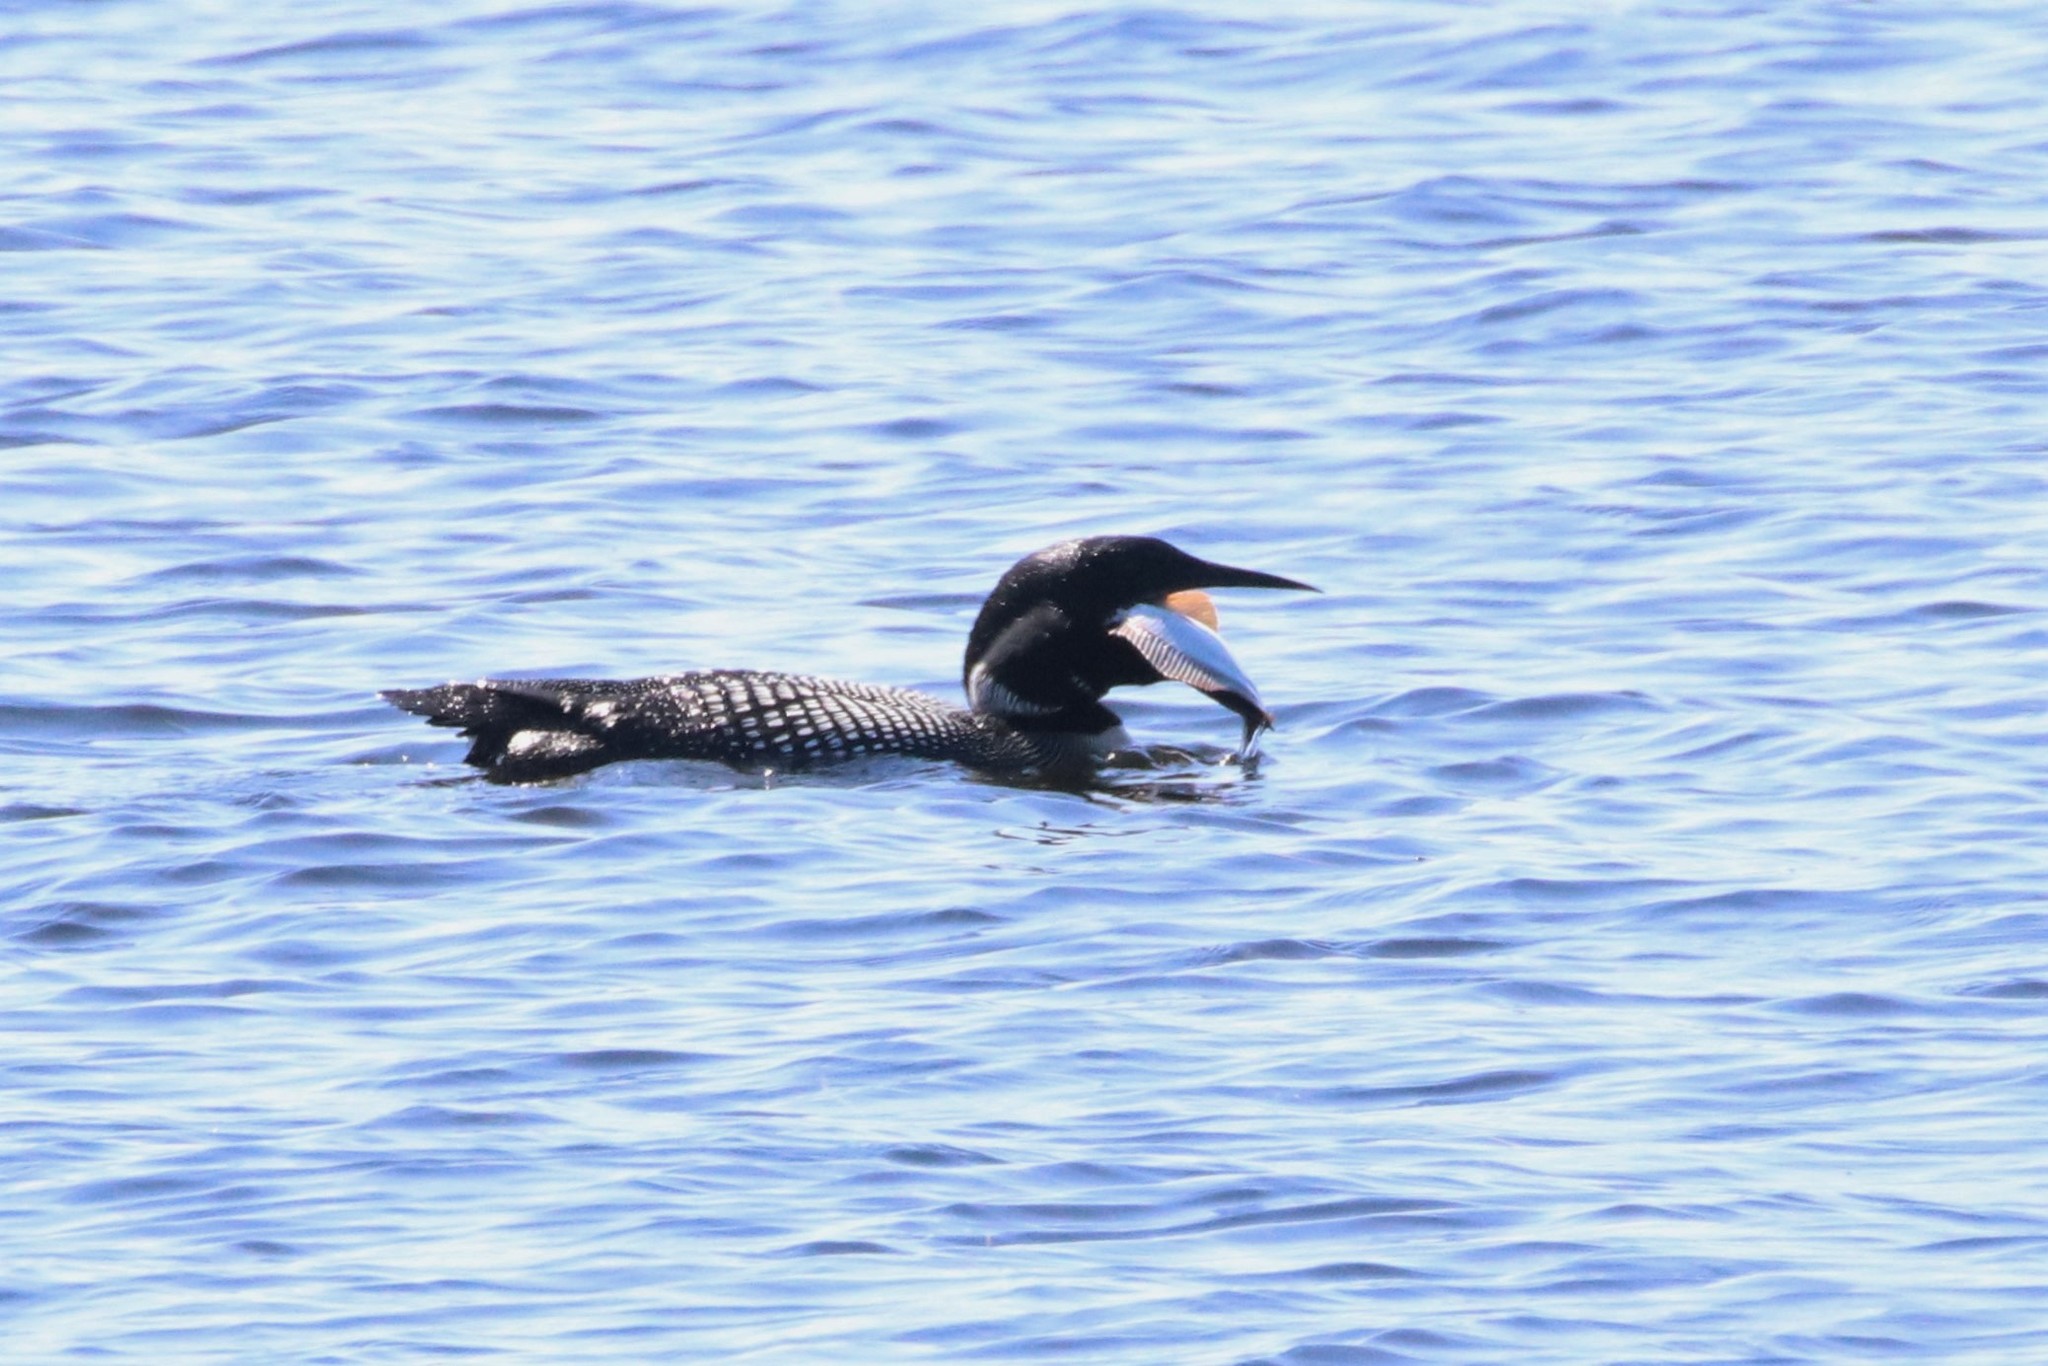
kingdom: Animalia
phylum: Chordata
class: Aves
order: Gaviiformes
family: Gaviidae
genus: Gavia
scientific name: Gavia immer
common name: Common loon
